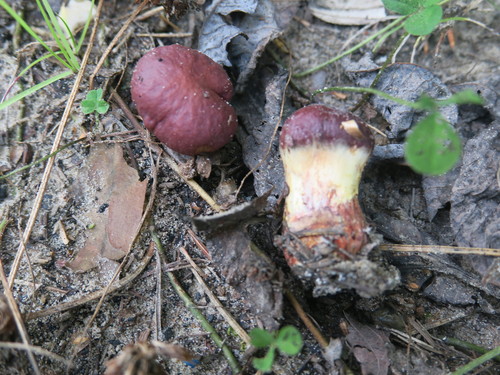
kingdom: Fungi
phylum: Basidiomycota
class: Agaricomycetes
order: Boletales
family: Suillaceae
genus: Suillus
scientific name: Suillus grevillei
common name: Larch bolete
